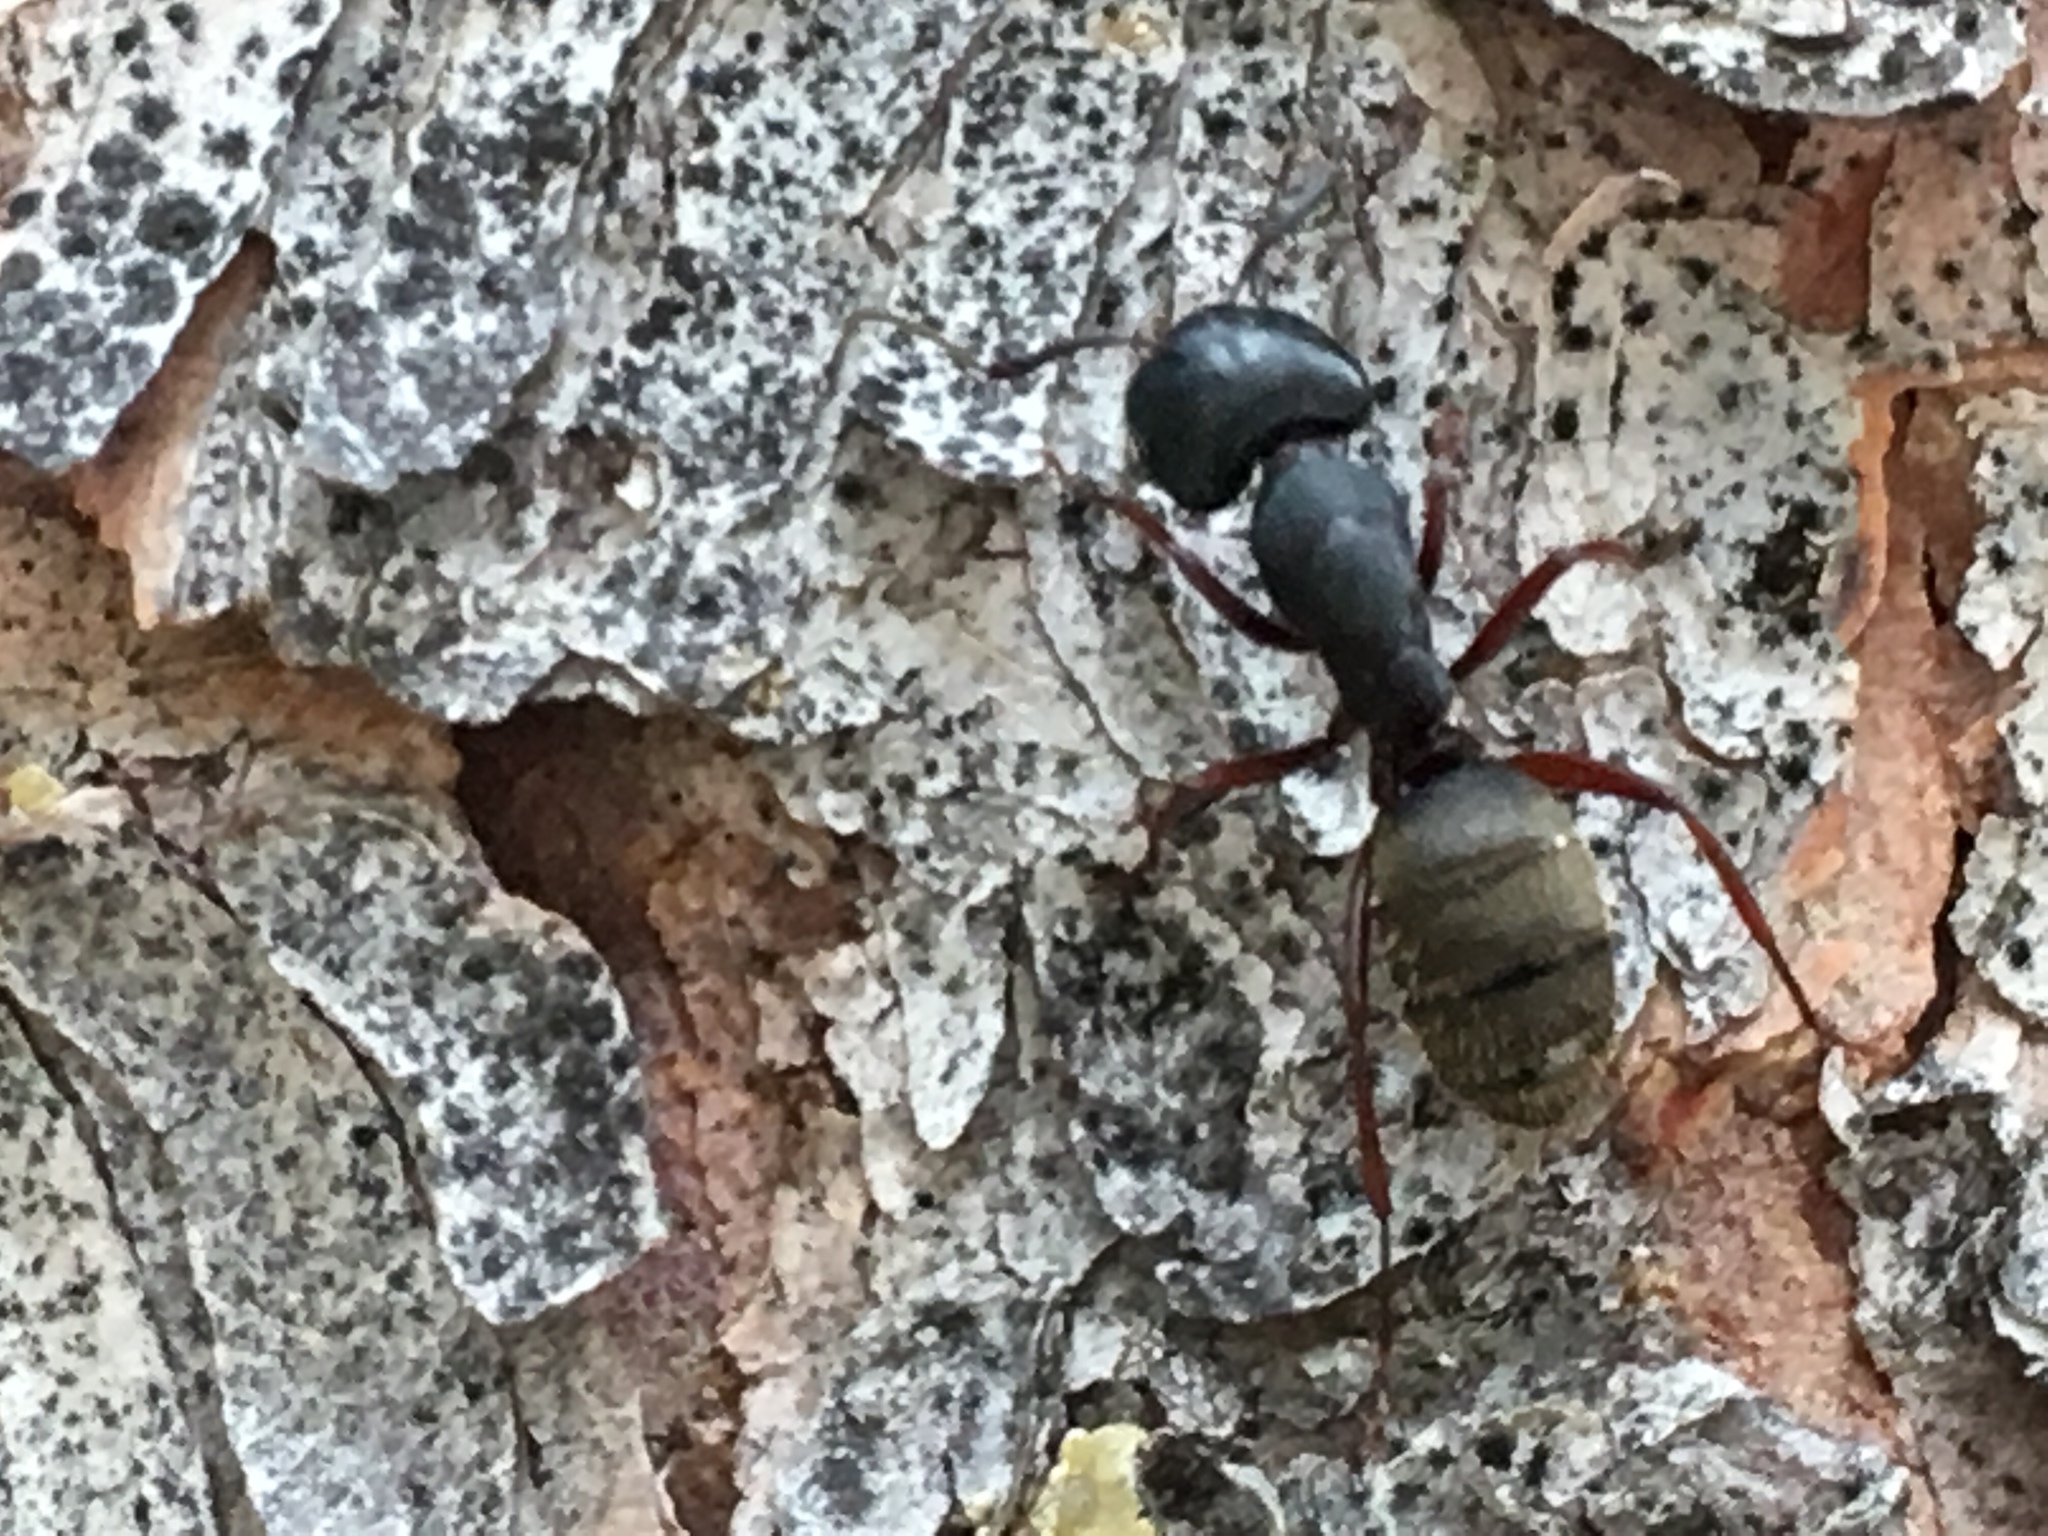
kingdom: Animalia
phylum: Arthropoda
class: Insecta
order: Hymenoptera
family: Formicidae
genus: Camponotus
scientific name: Camponotus modoc
